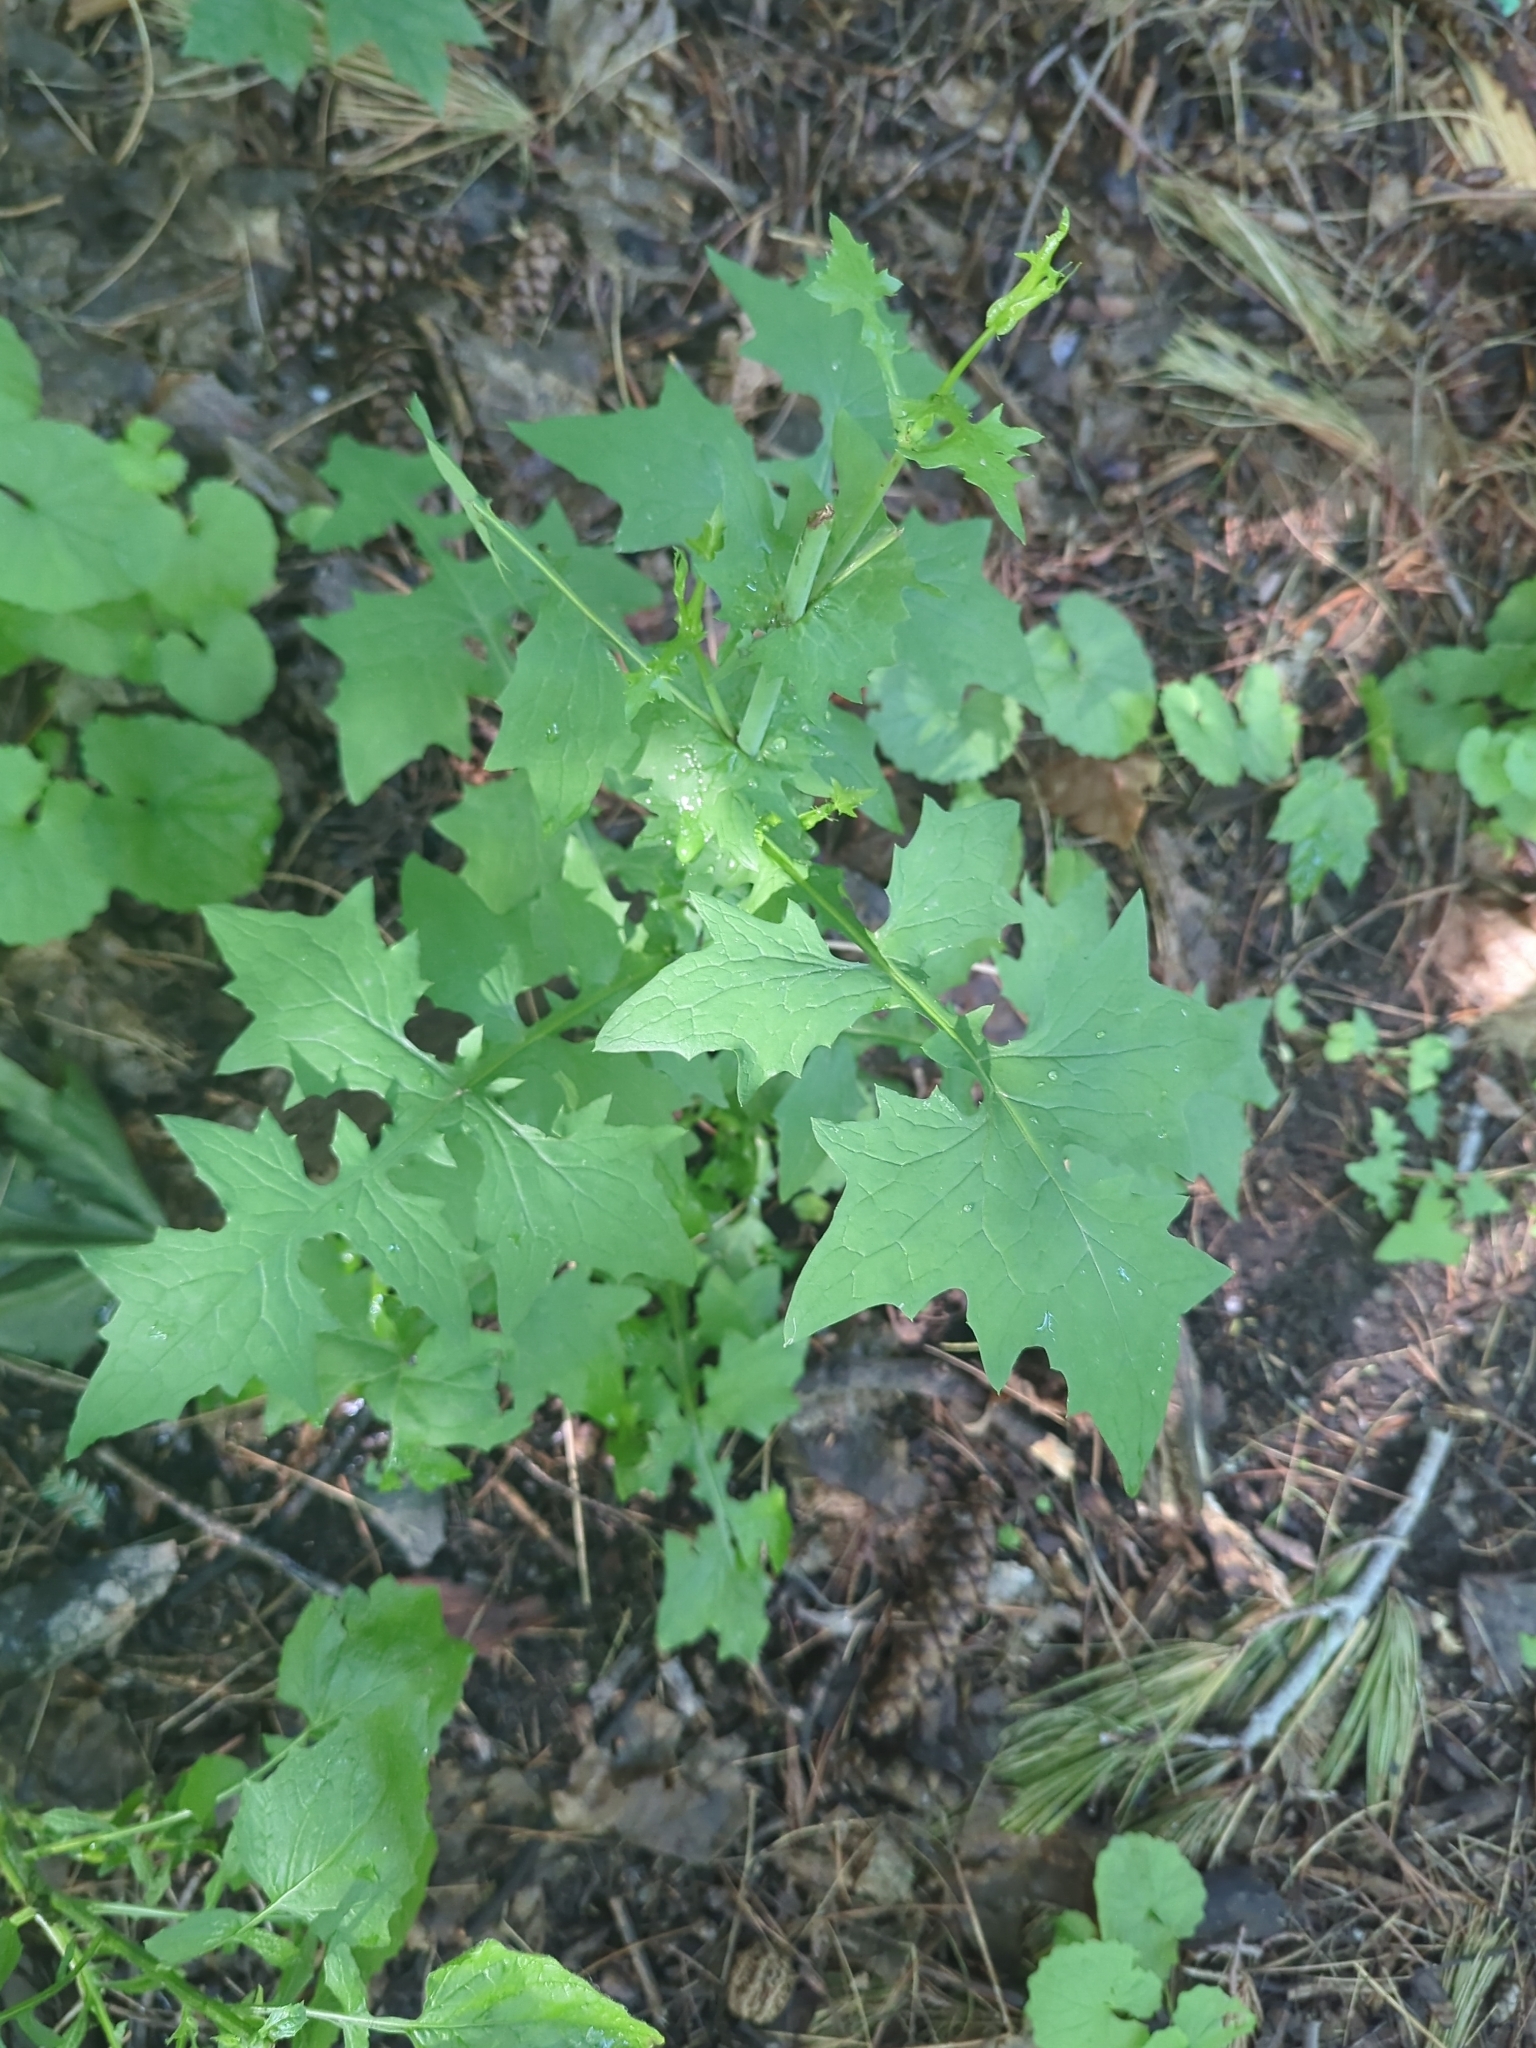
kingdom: Plantae
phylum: Tracheophyta
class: Magnoliopsida
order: Asterales
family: Asteraceae
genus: Mycelis
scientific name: Mycelis muralis
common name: Wall lettuce
